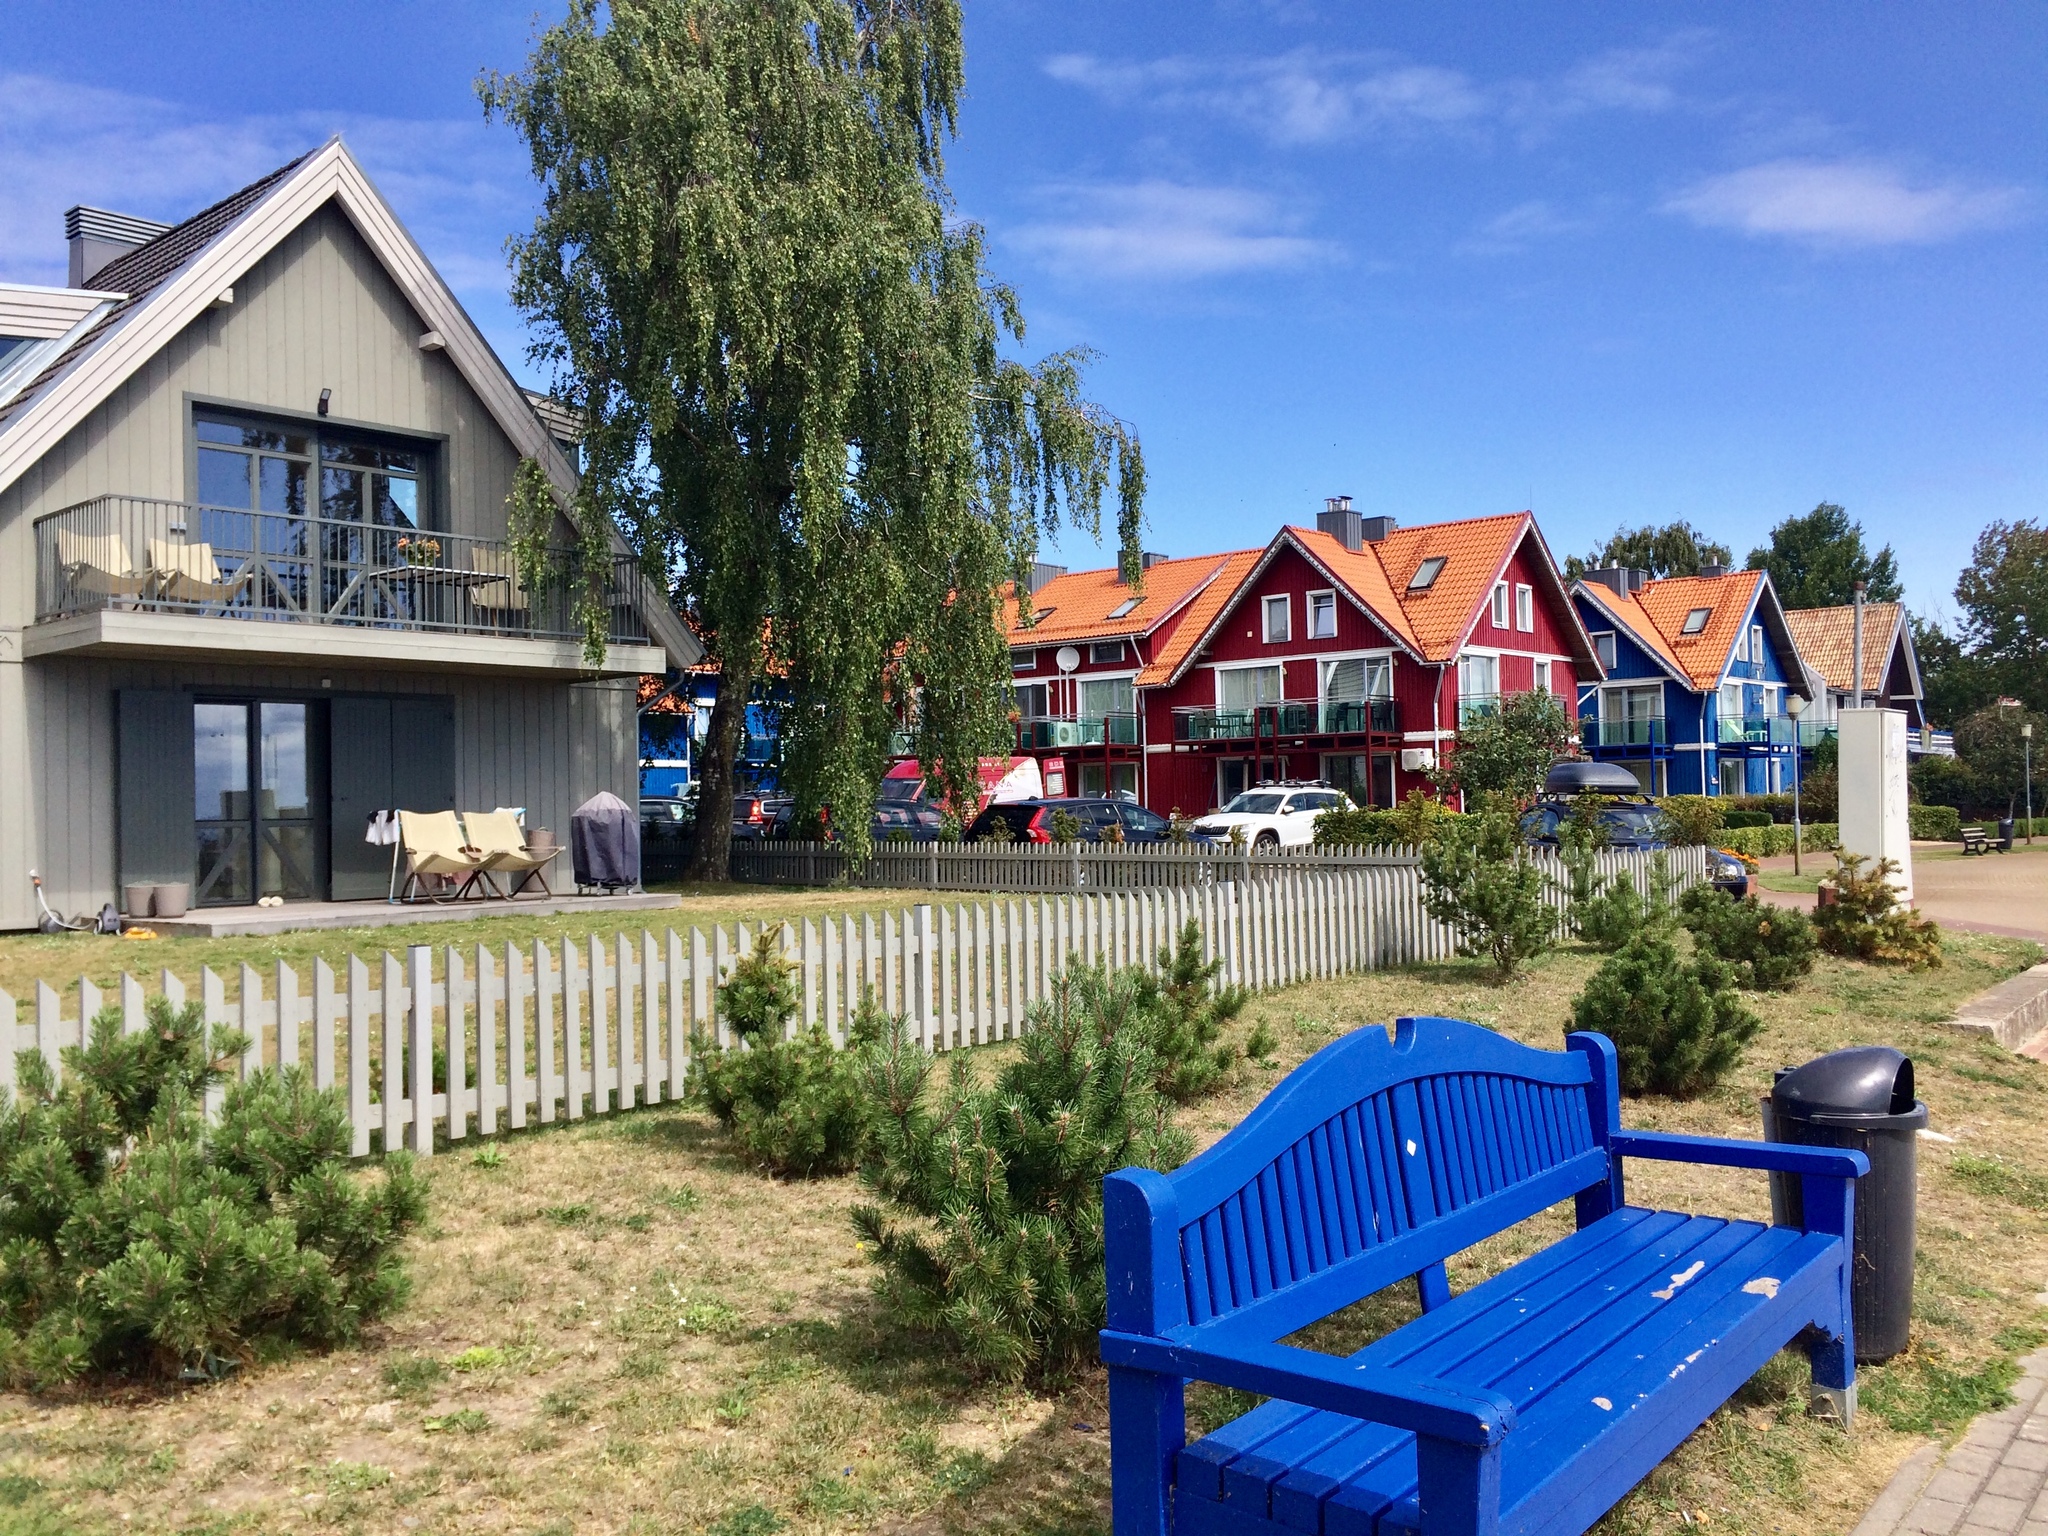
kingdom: Plantae
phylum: Tracheophyta
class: Magnoliopsida
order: Fagales
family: Betulaceae
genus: Betula
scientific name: Betula pendula
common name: Silver birch
